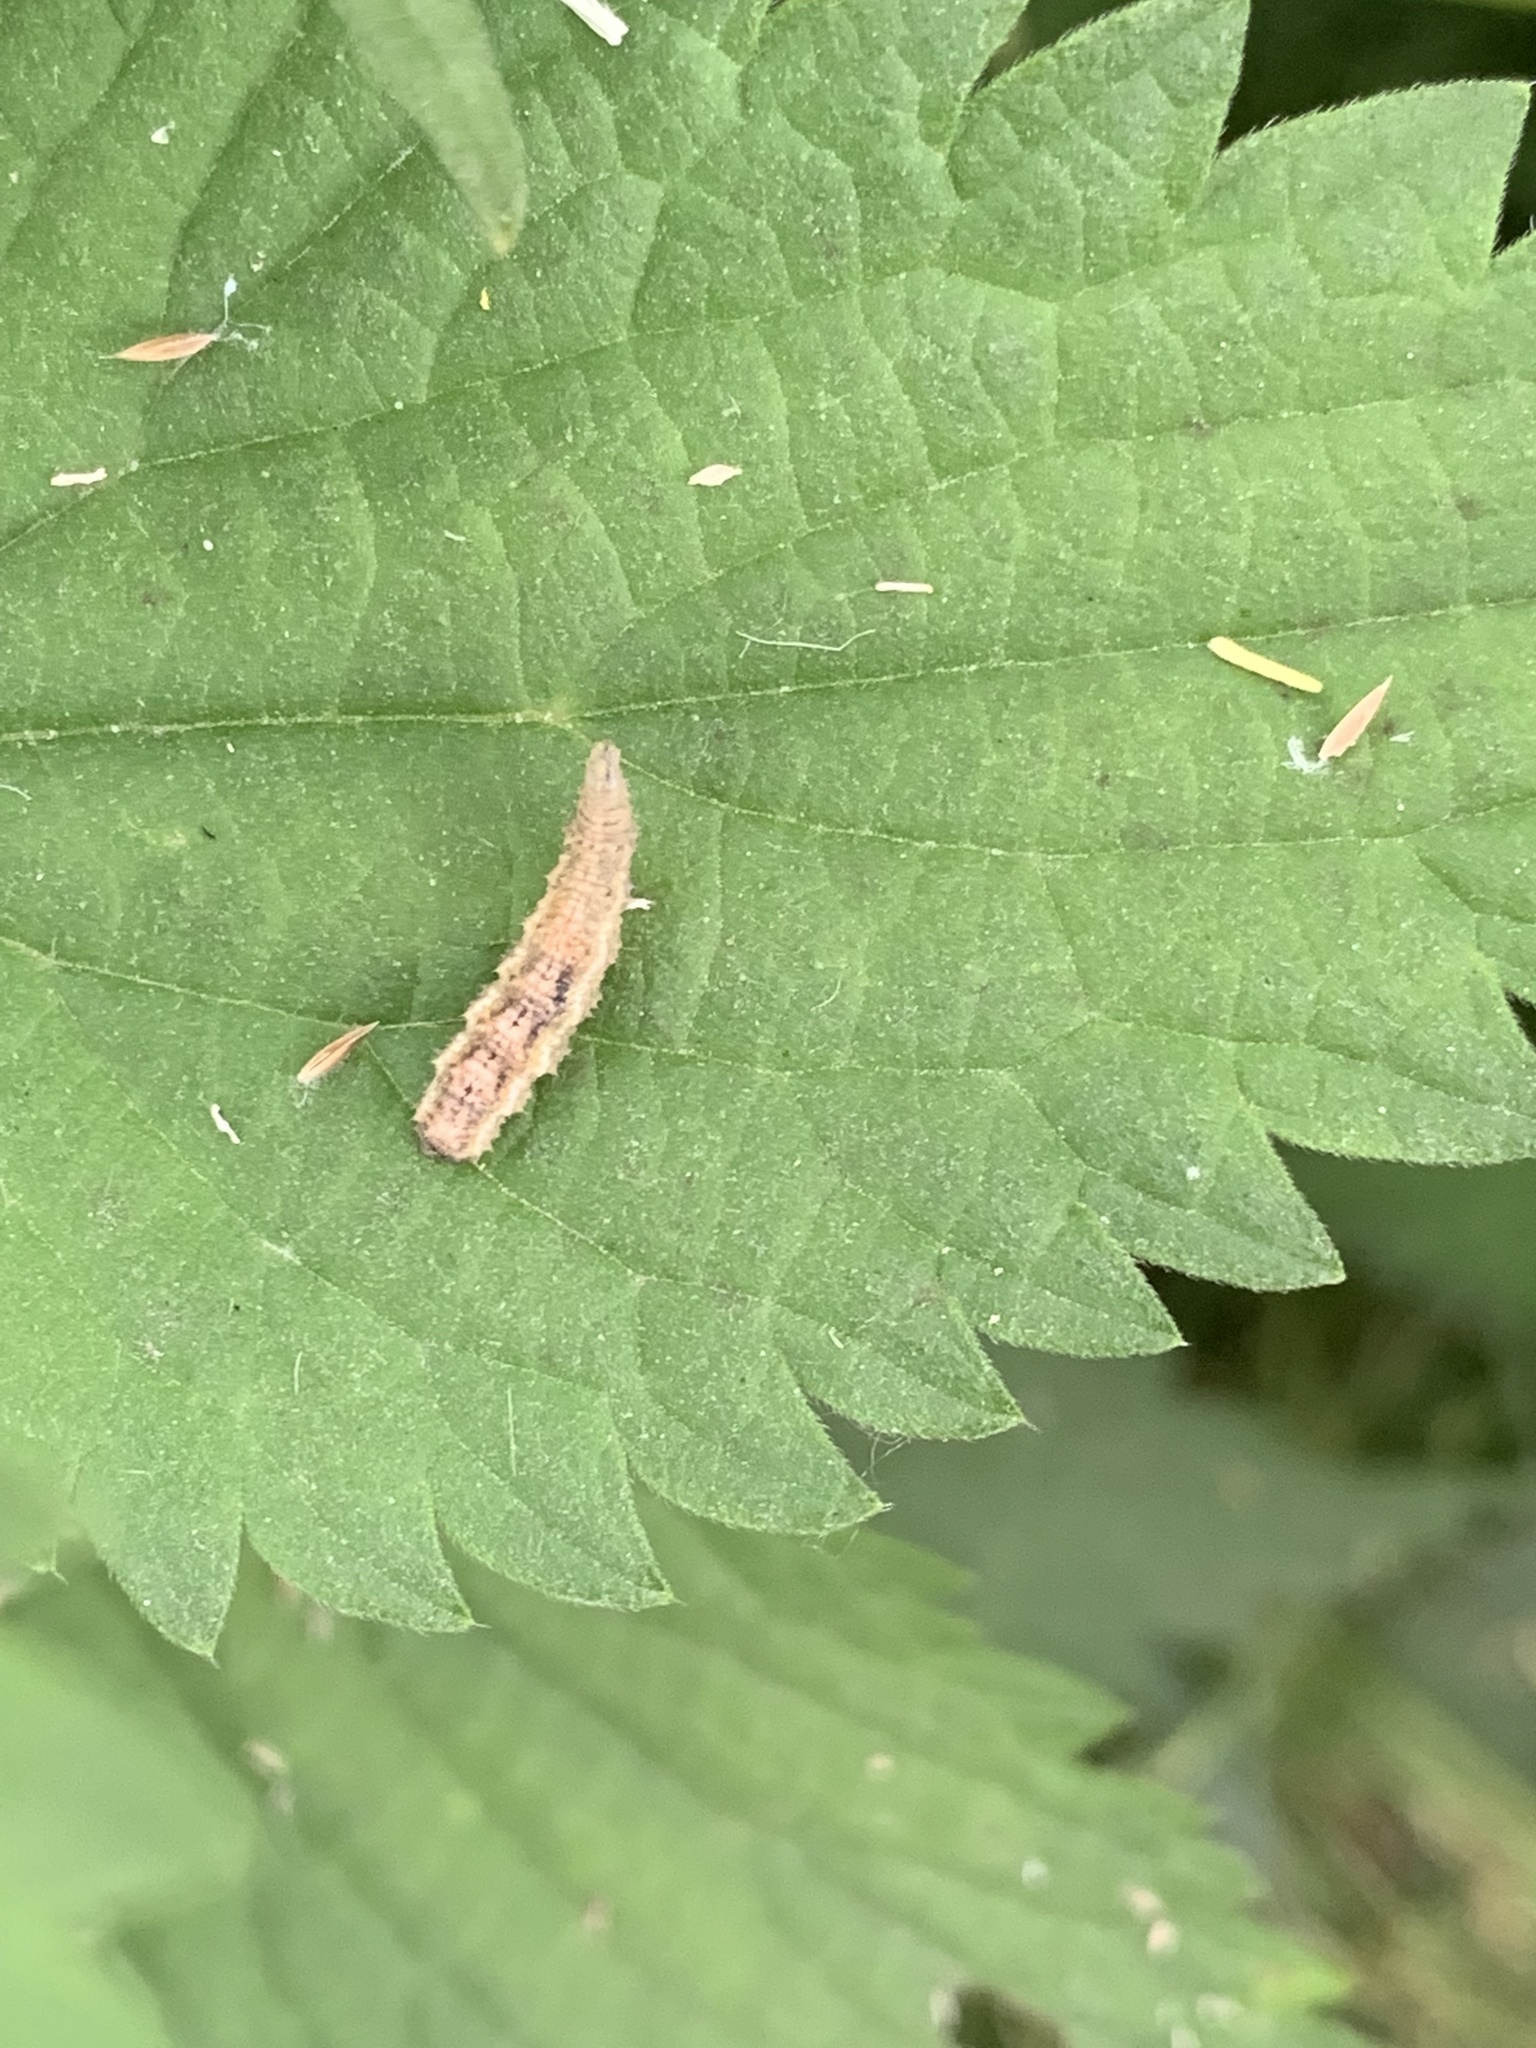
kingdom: Animalia
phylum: Arthropoda
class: Insecta
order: Diptera
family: Syrphidae
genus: Eupeodes
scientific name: Eupeodes
